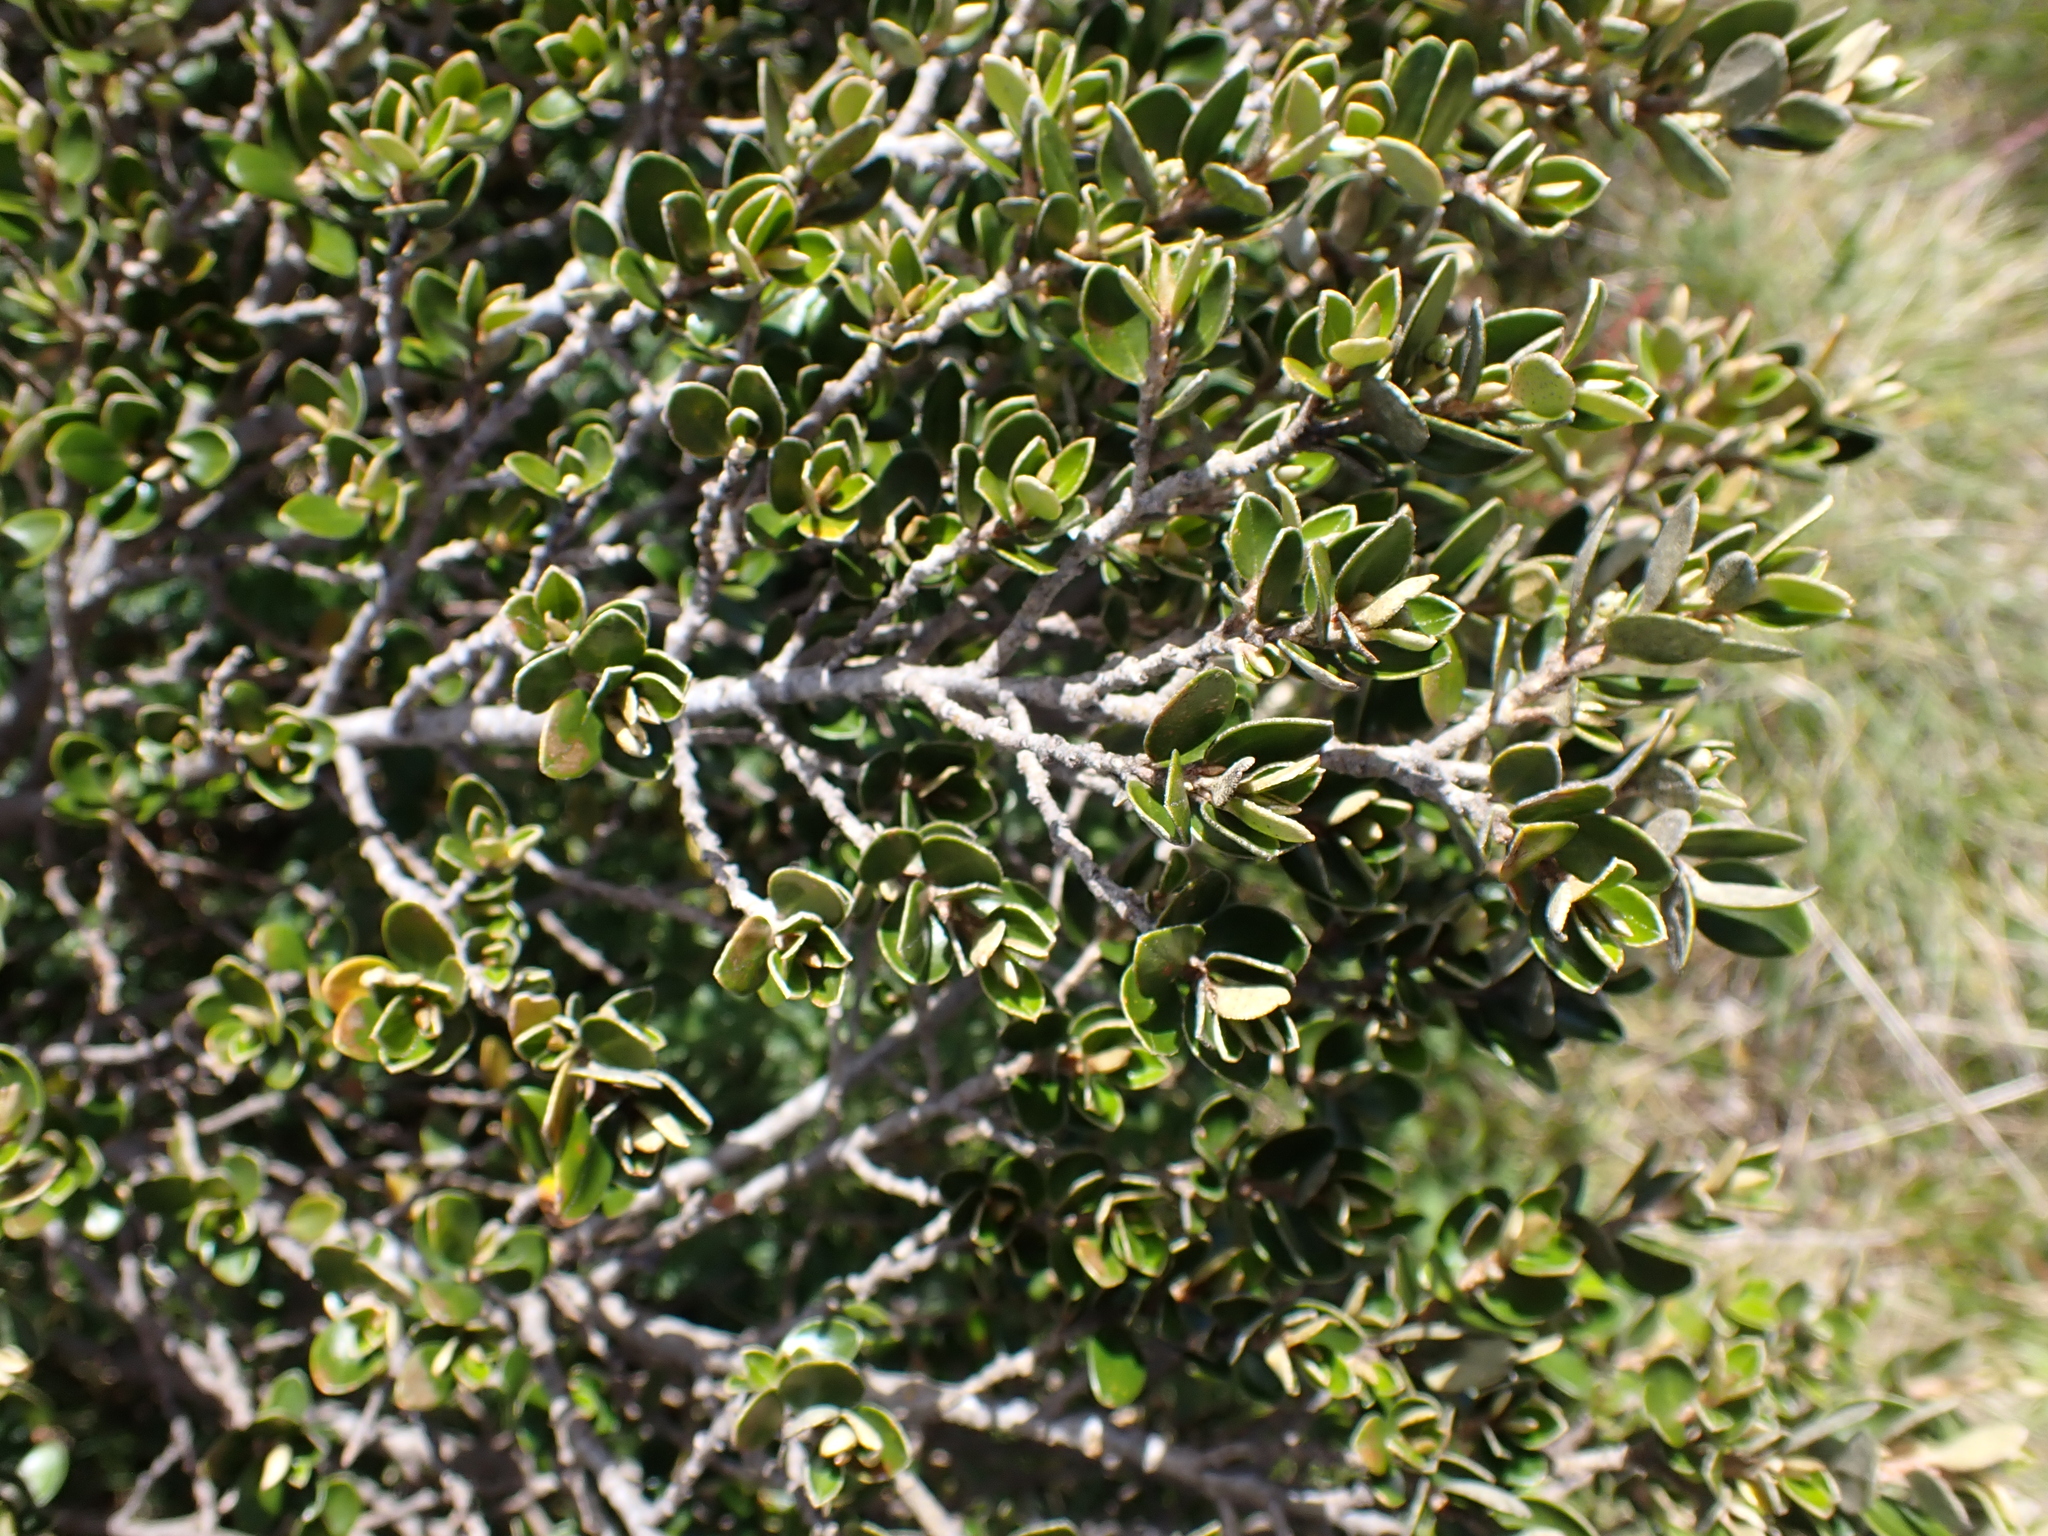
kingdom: Plantae
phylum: Tracheophyta
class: Magnoliopsida
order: Sapindales
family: Rutaceae
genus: Nematolepis
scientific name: Nematolepis ovatifolia
